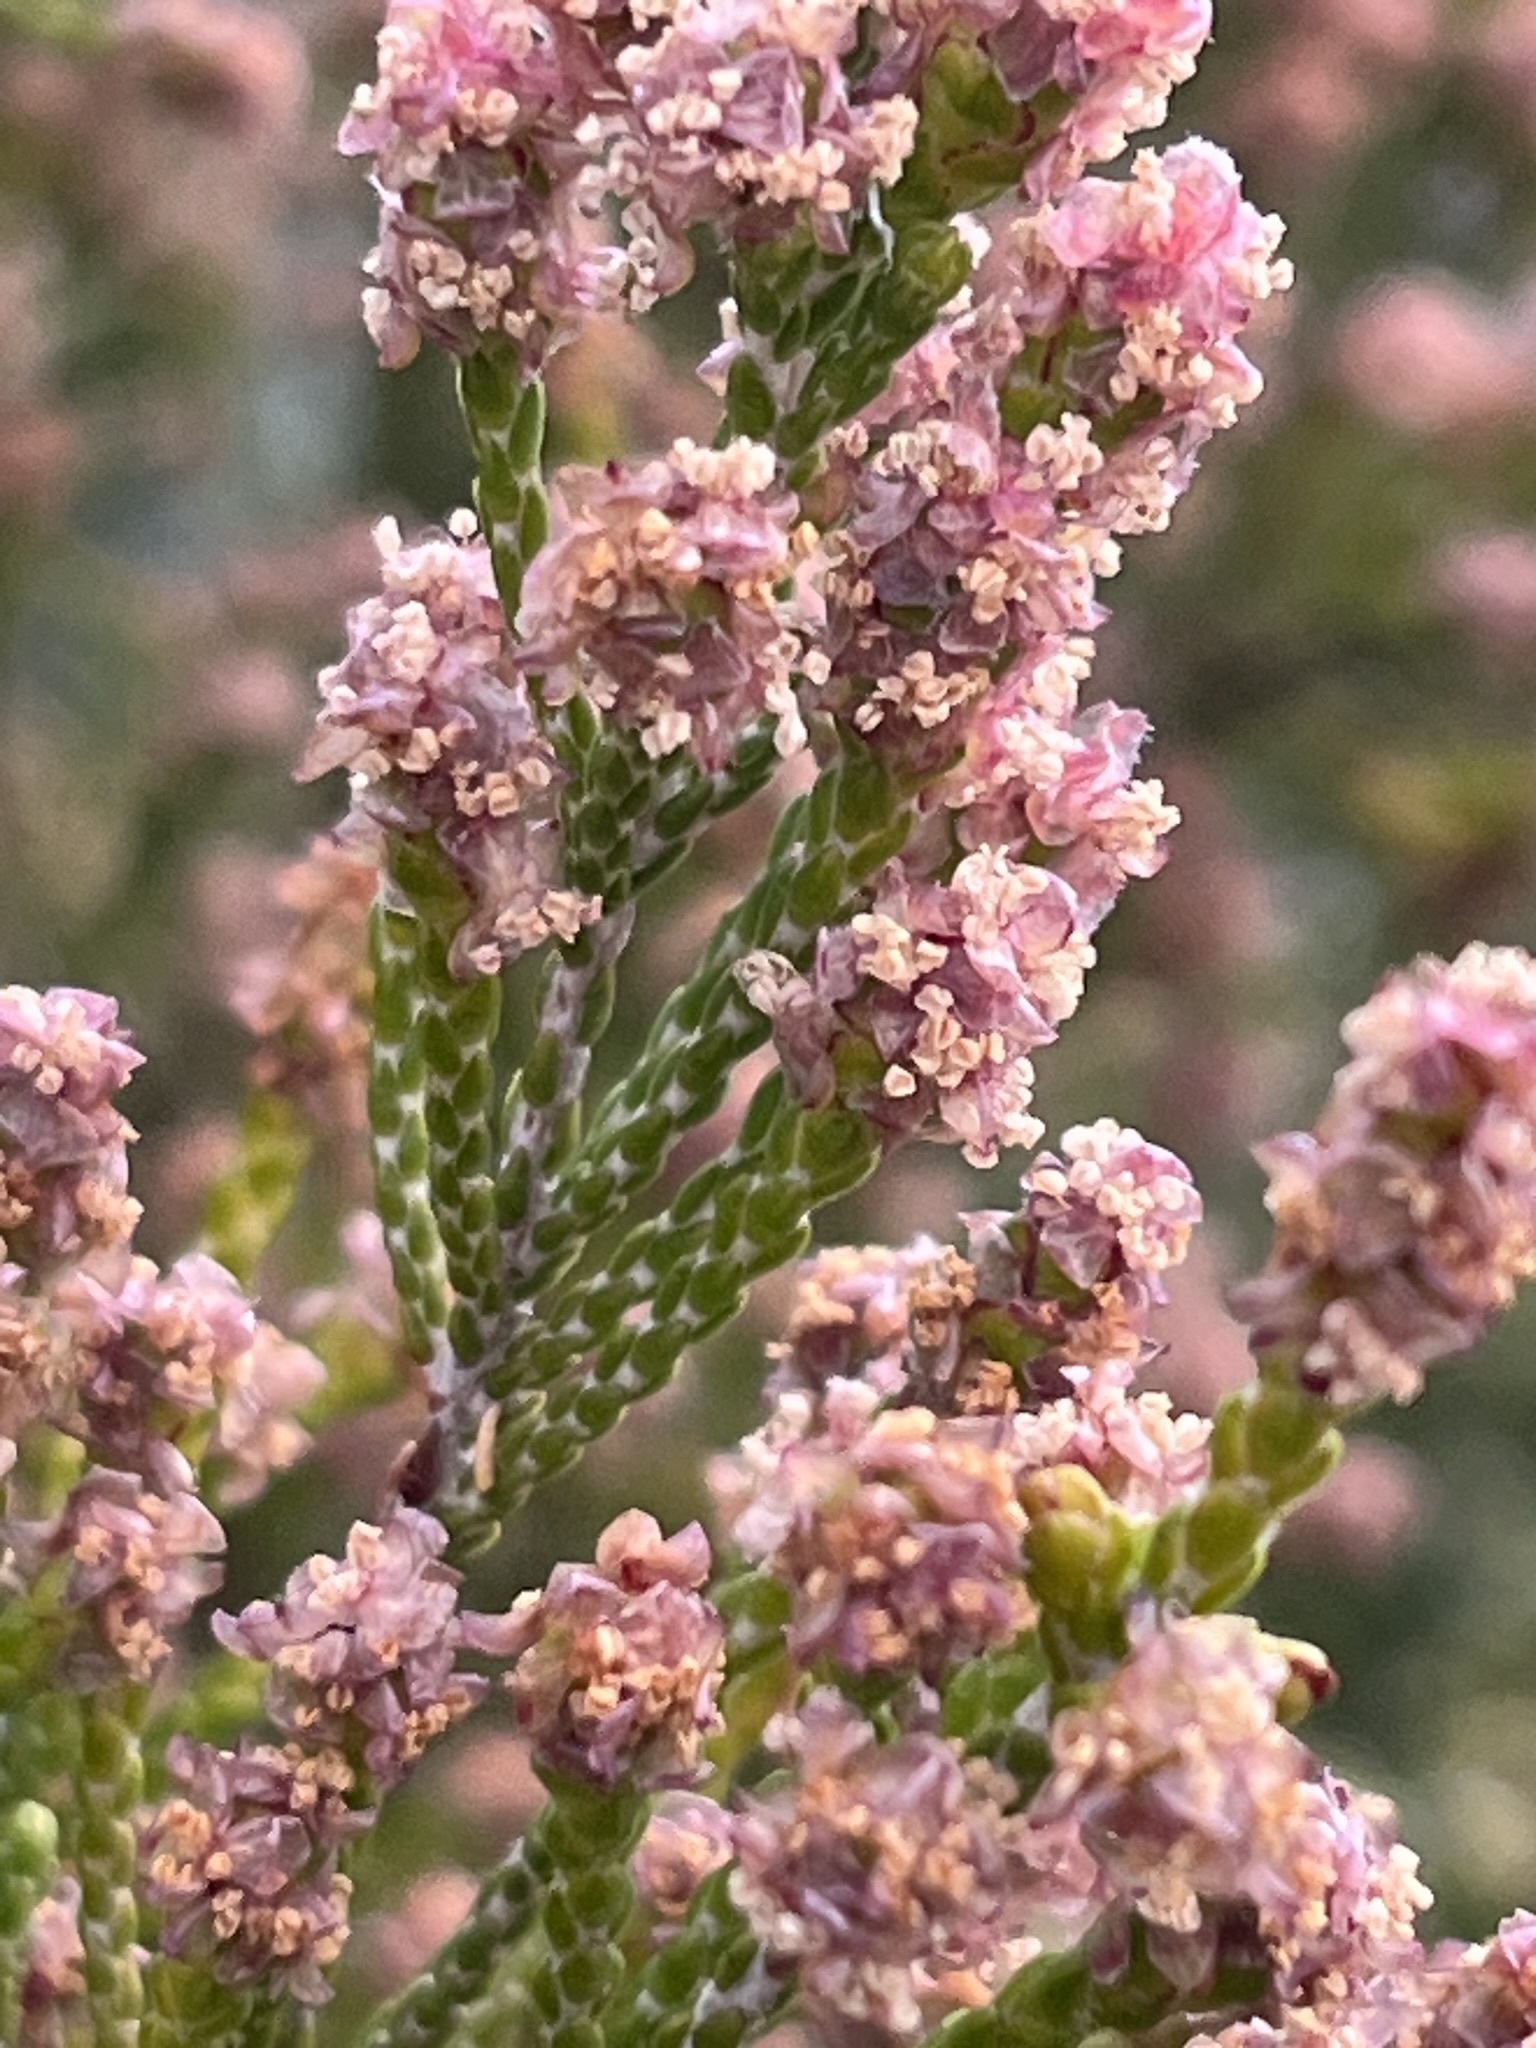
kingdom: Plantae
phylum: Tracheophyta
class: Magnoliopsida
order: Malvales
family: Thymelaeaceae
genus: Passerina
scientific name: Passerina paleacea
